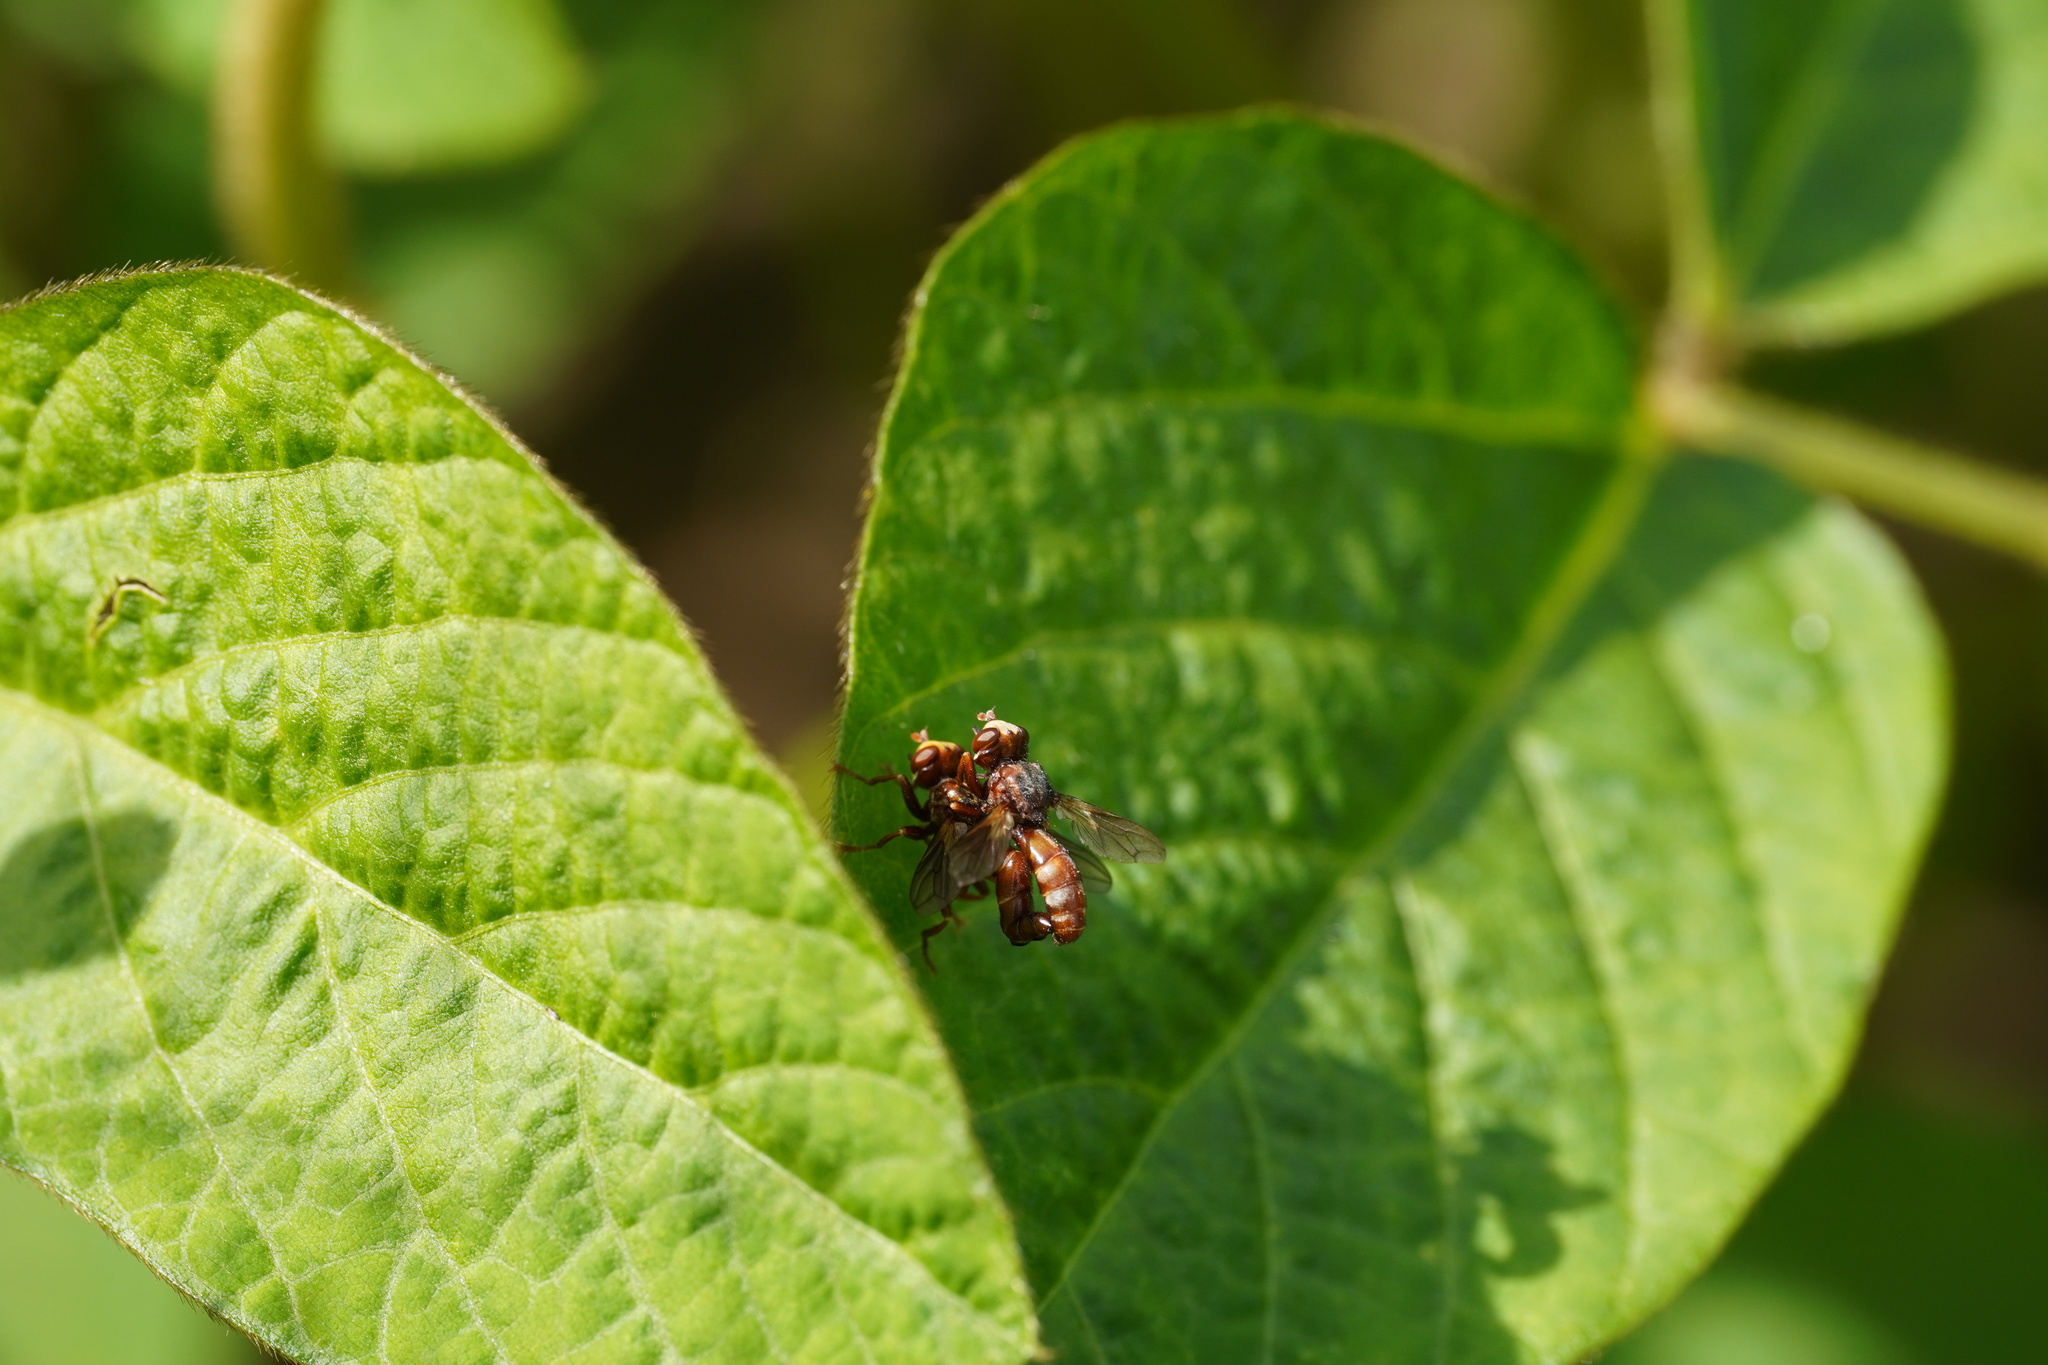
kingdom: Animalia
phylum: Arthropoda
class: Insecta
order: Diptera
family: Conopidae
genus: Sicus
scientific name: Sicus ferrugineus
